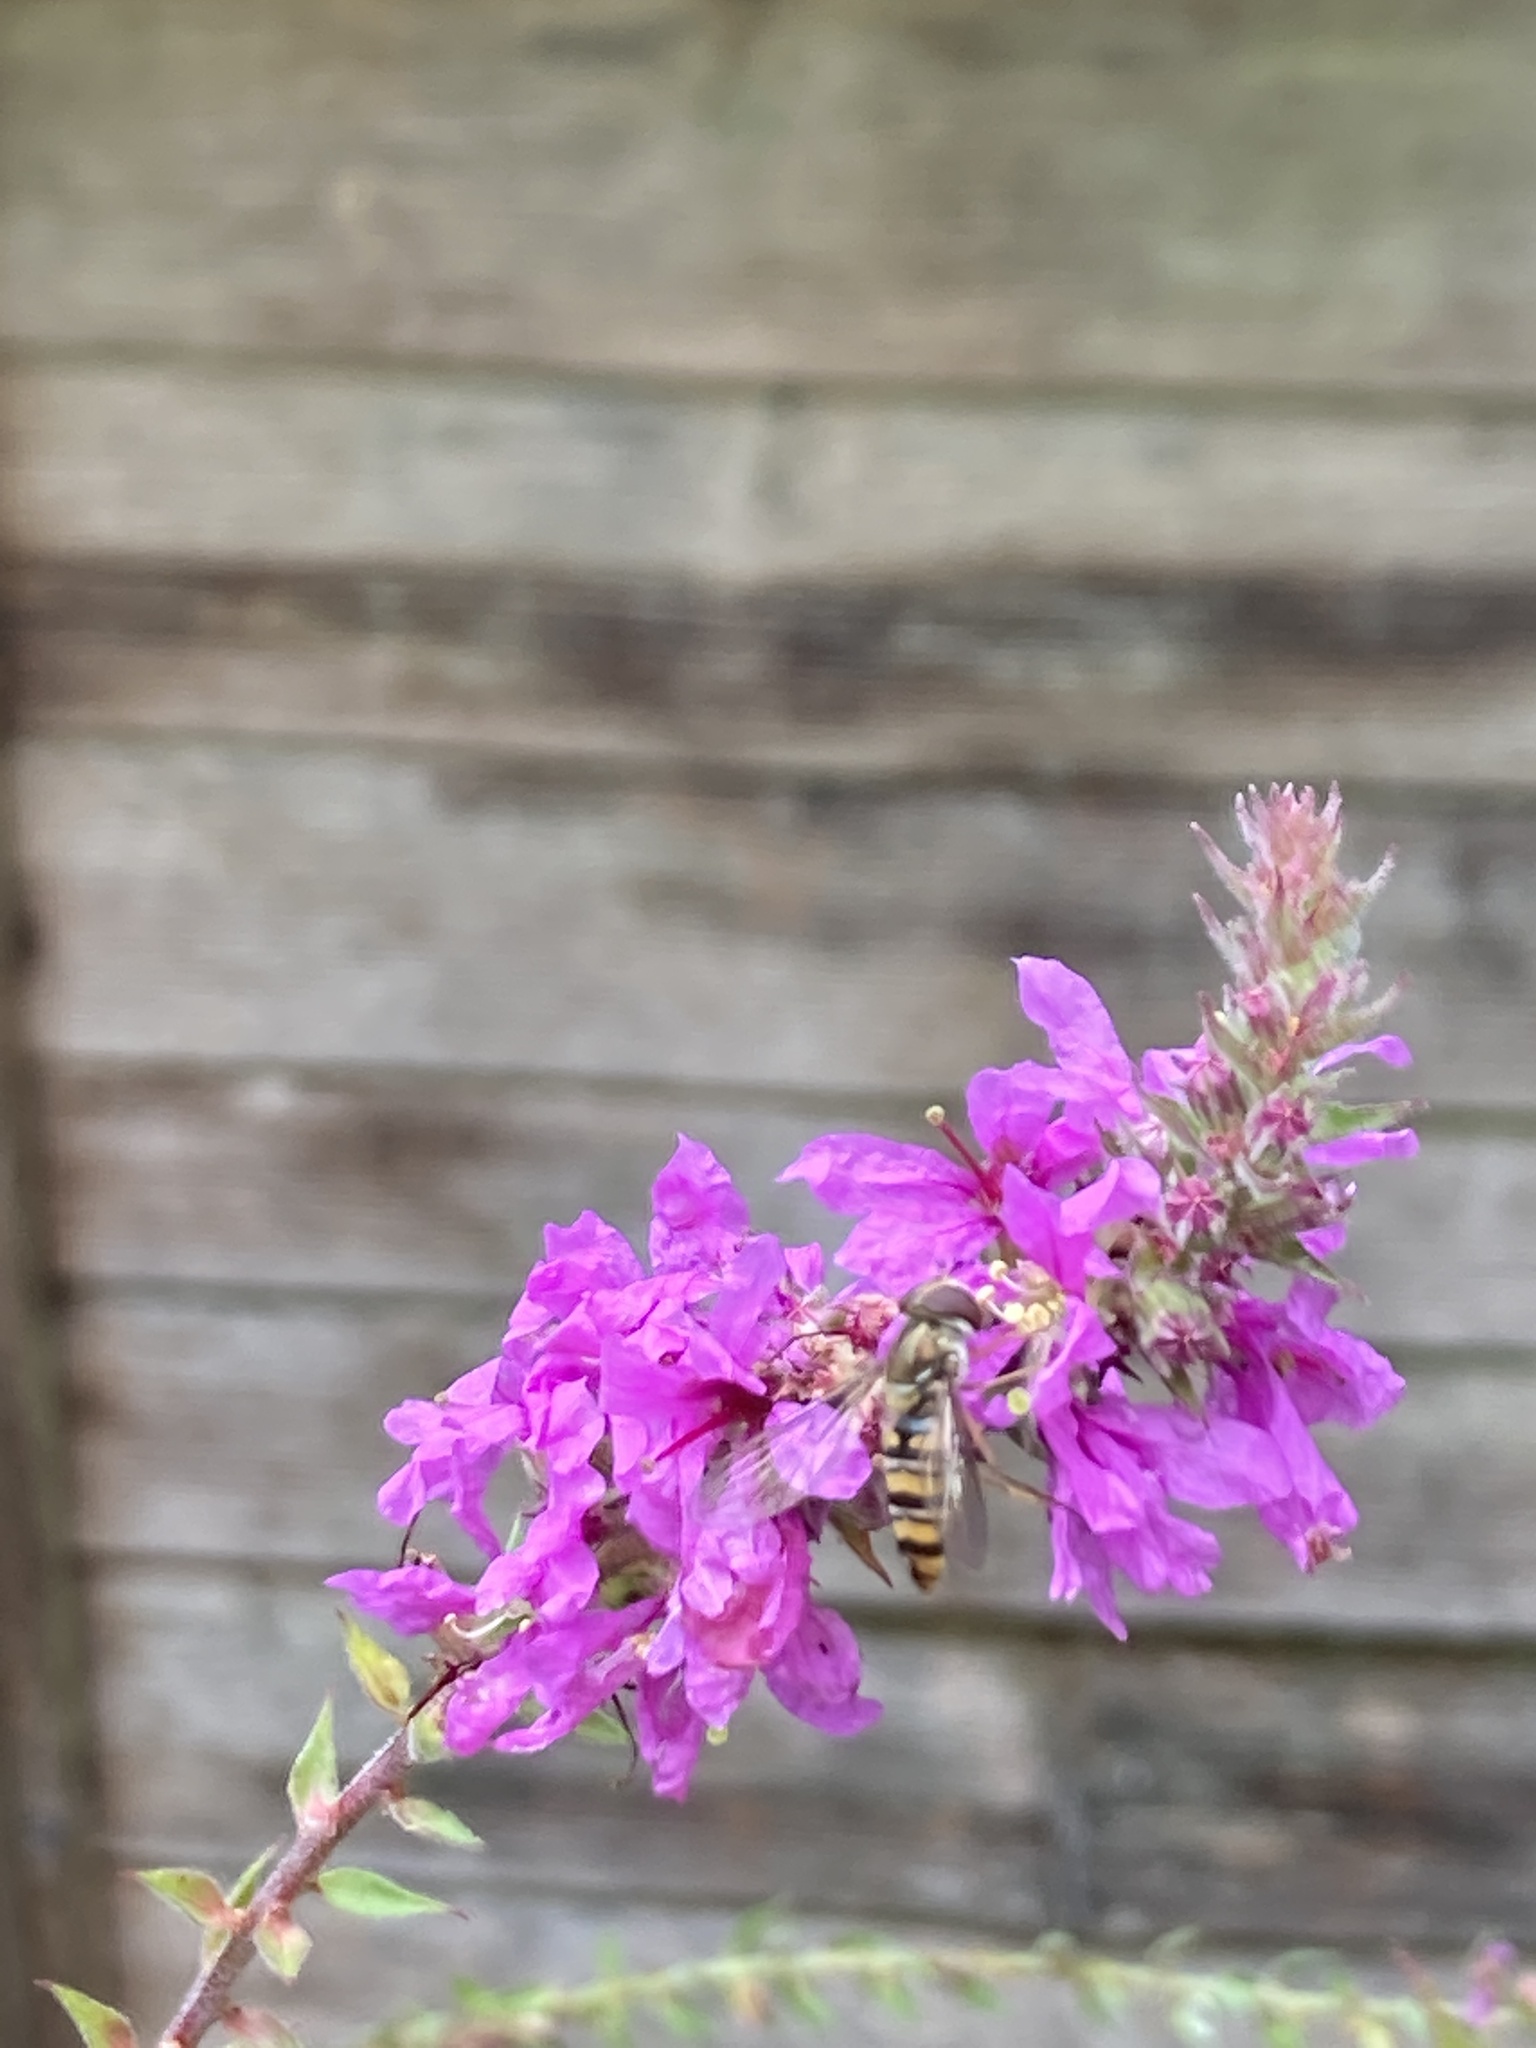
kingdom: Animalia
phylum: Arthropoda
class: Insecta
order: Diptera
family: Syrphidae
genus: Episyrphus
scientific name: Episyrphus balteatus
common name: Marmalade hoverfly
